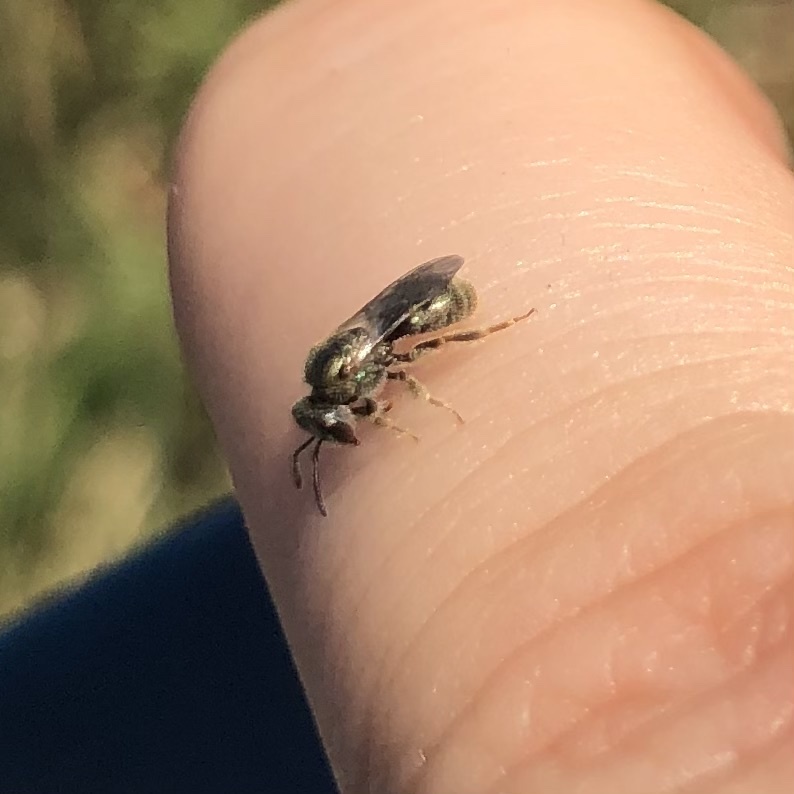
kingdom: Animalia
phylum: Arthropoda
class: Insecta
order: Hymenoptera
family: Halictidae
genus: Dialictus
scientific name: Dialictus
